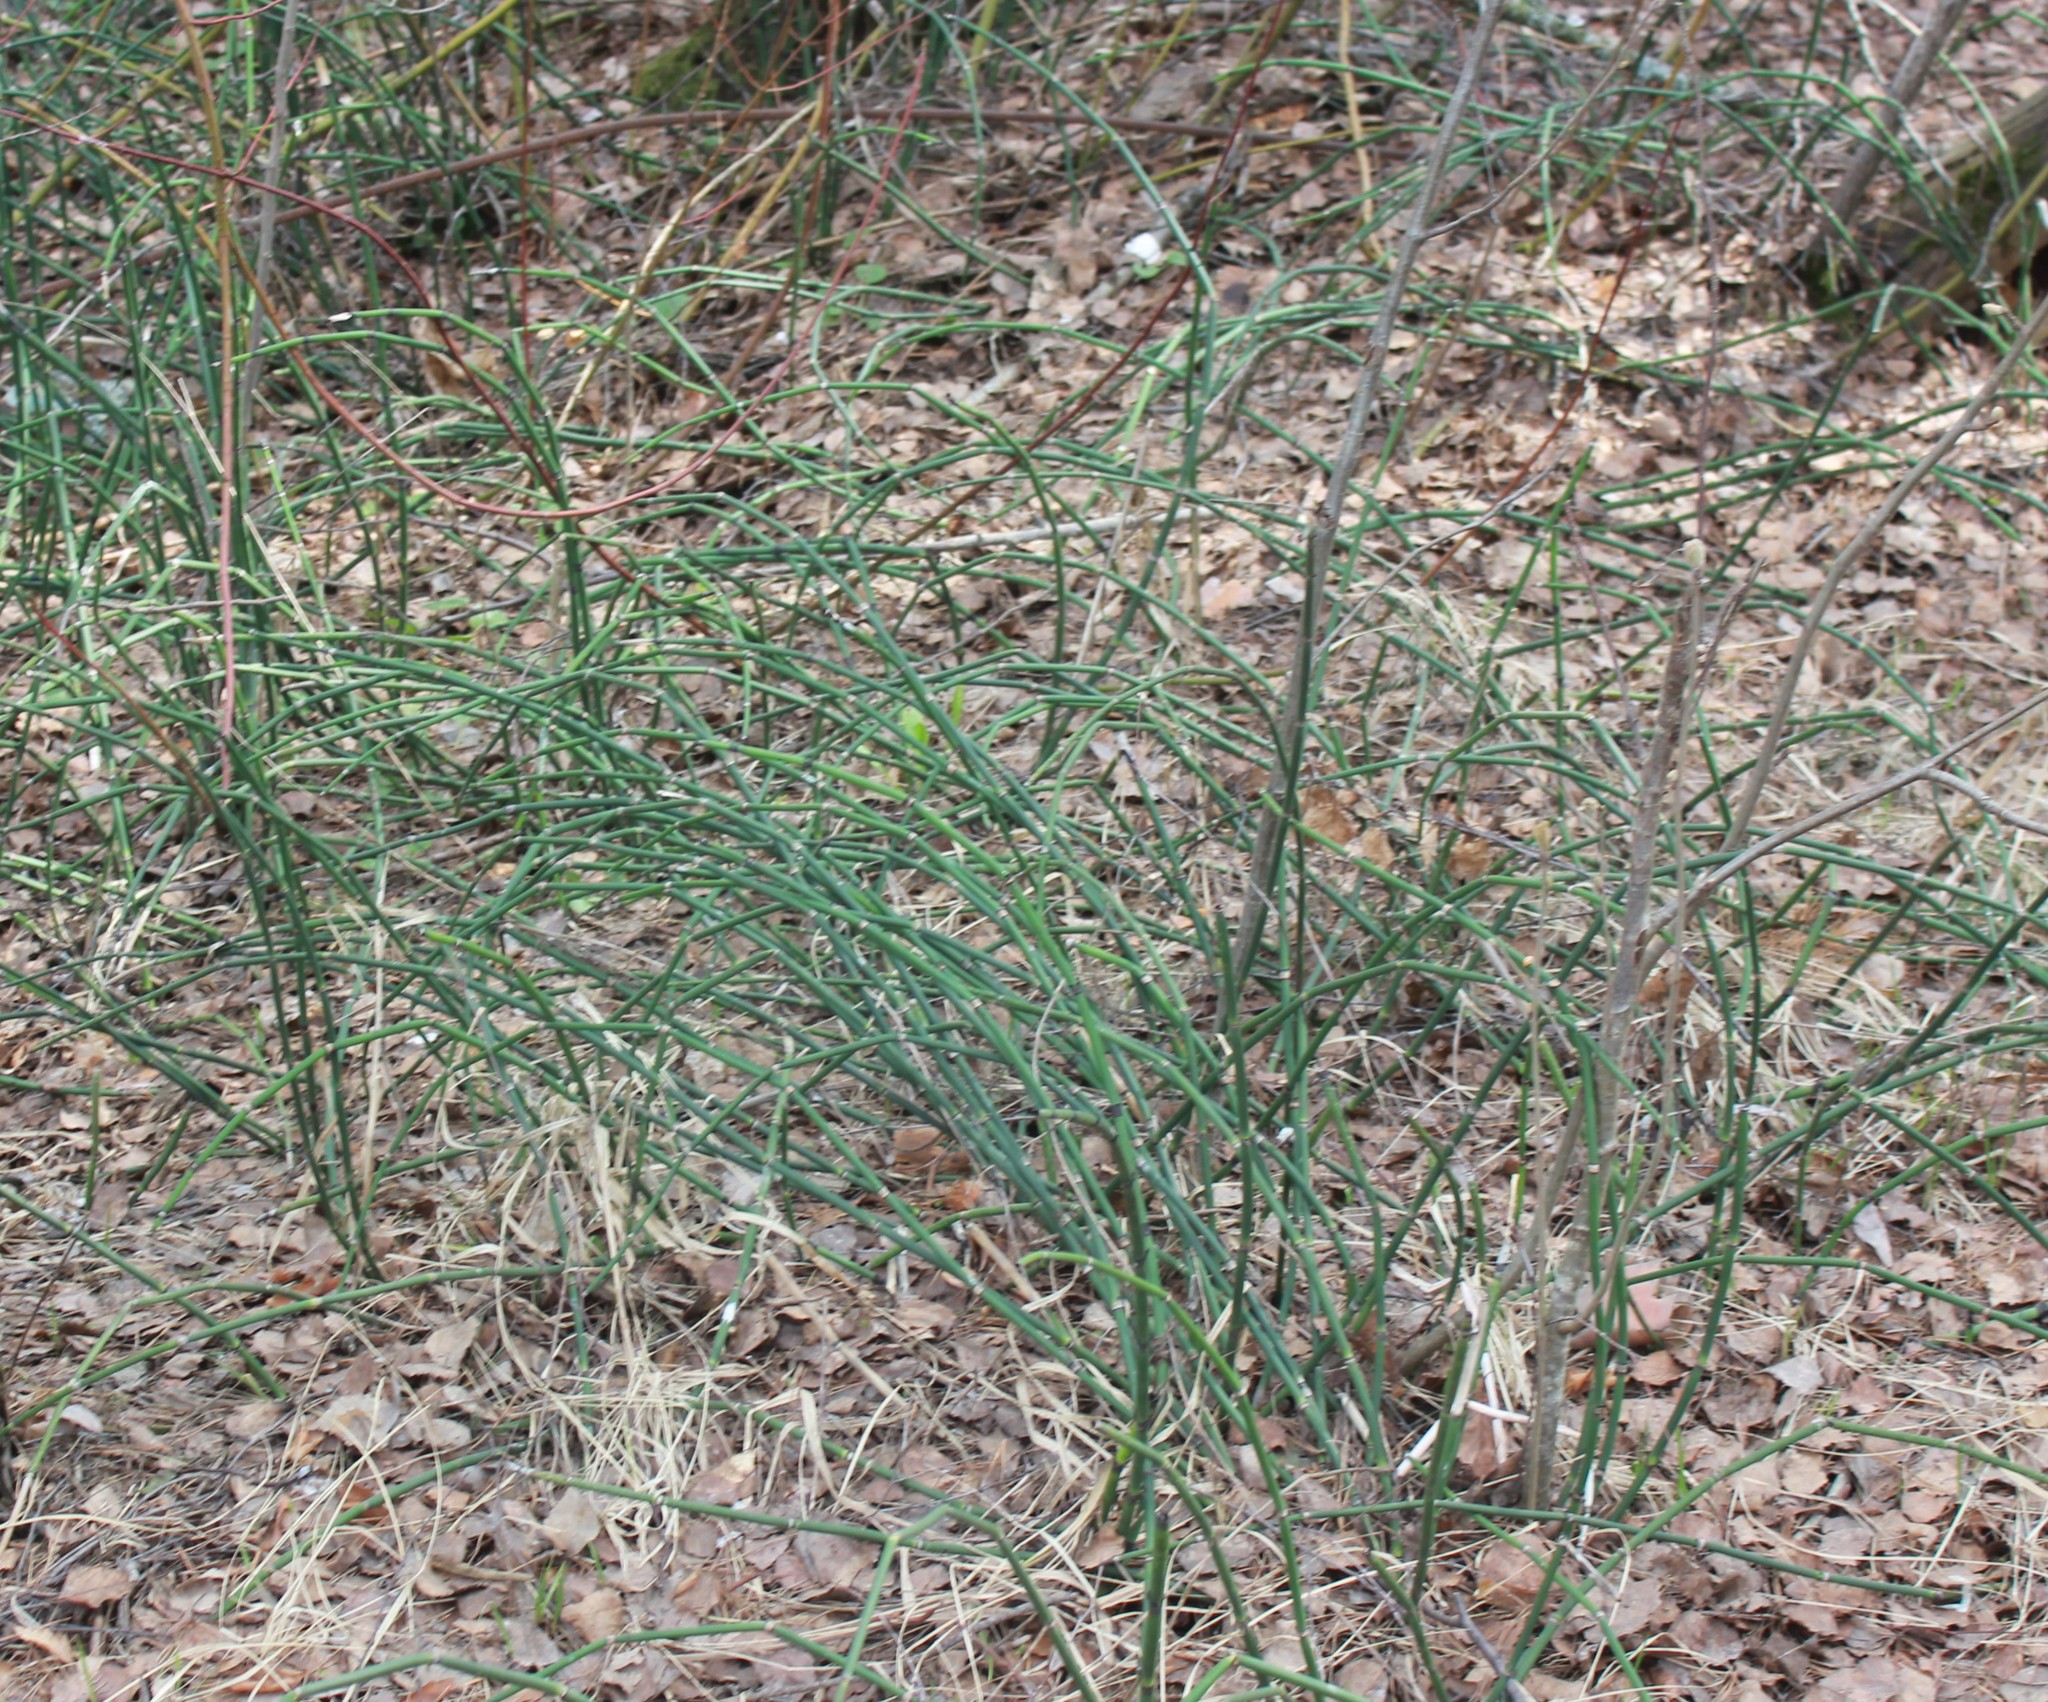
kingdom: Plantae
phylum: Tracheophyta
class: Polypodiopsida
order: Equisetales
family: Equisetaceae
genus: Equisetum
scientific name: Equisetum hyemale
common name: Rough horsetail
